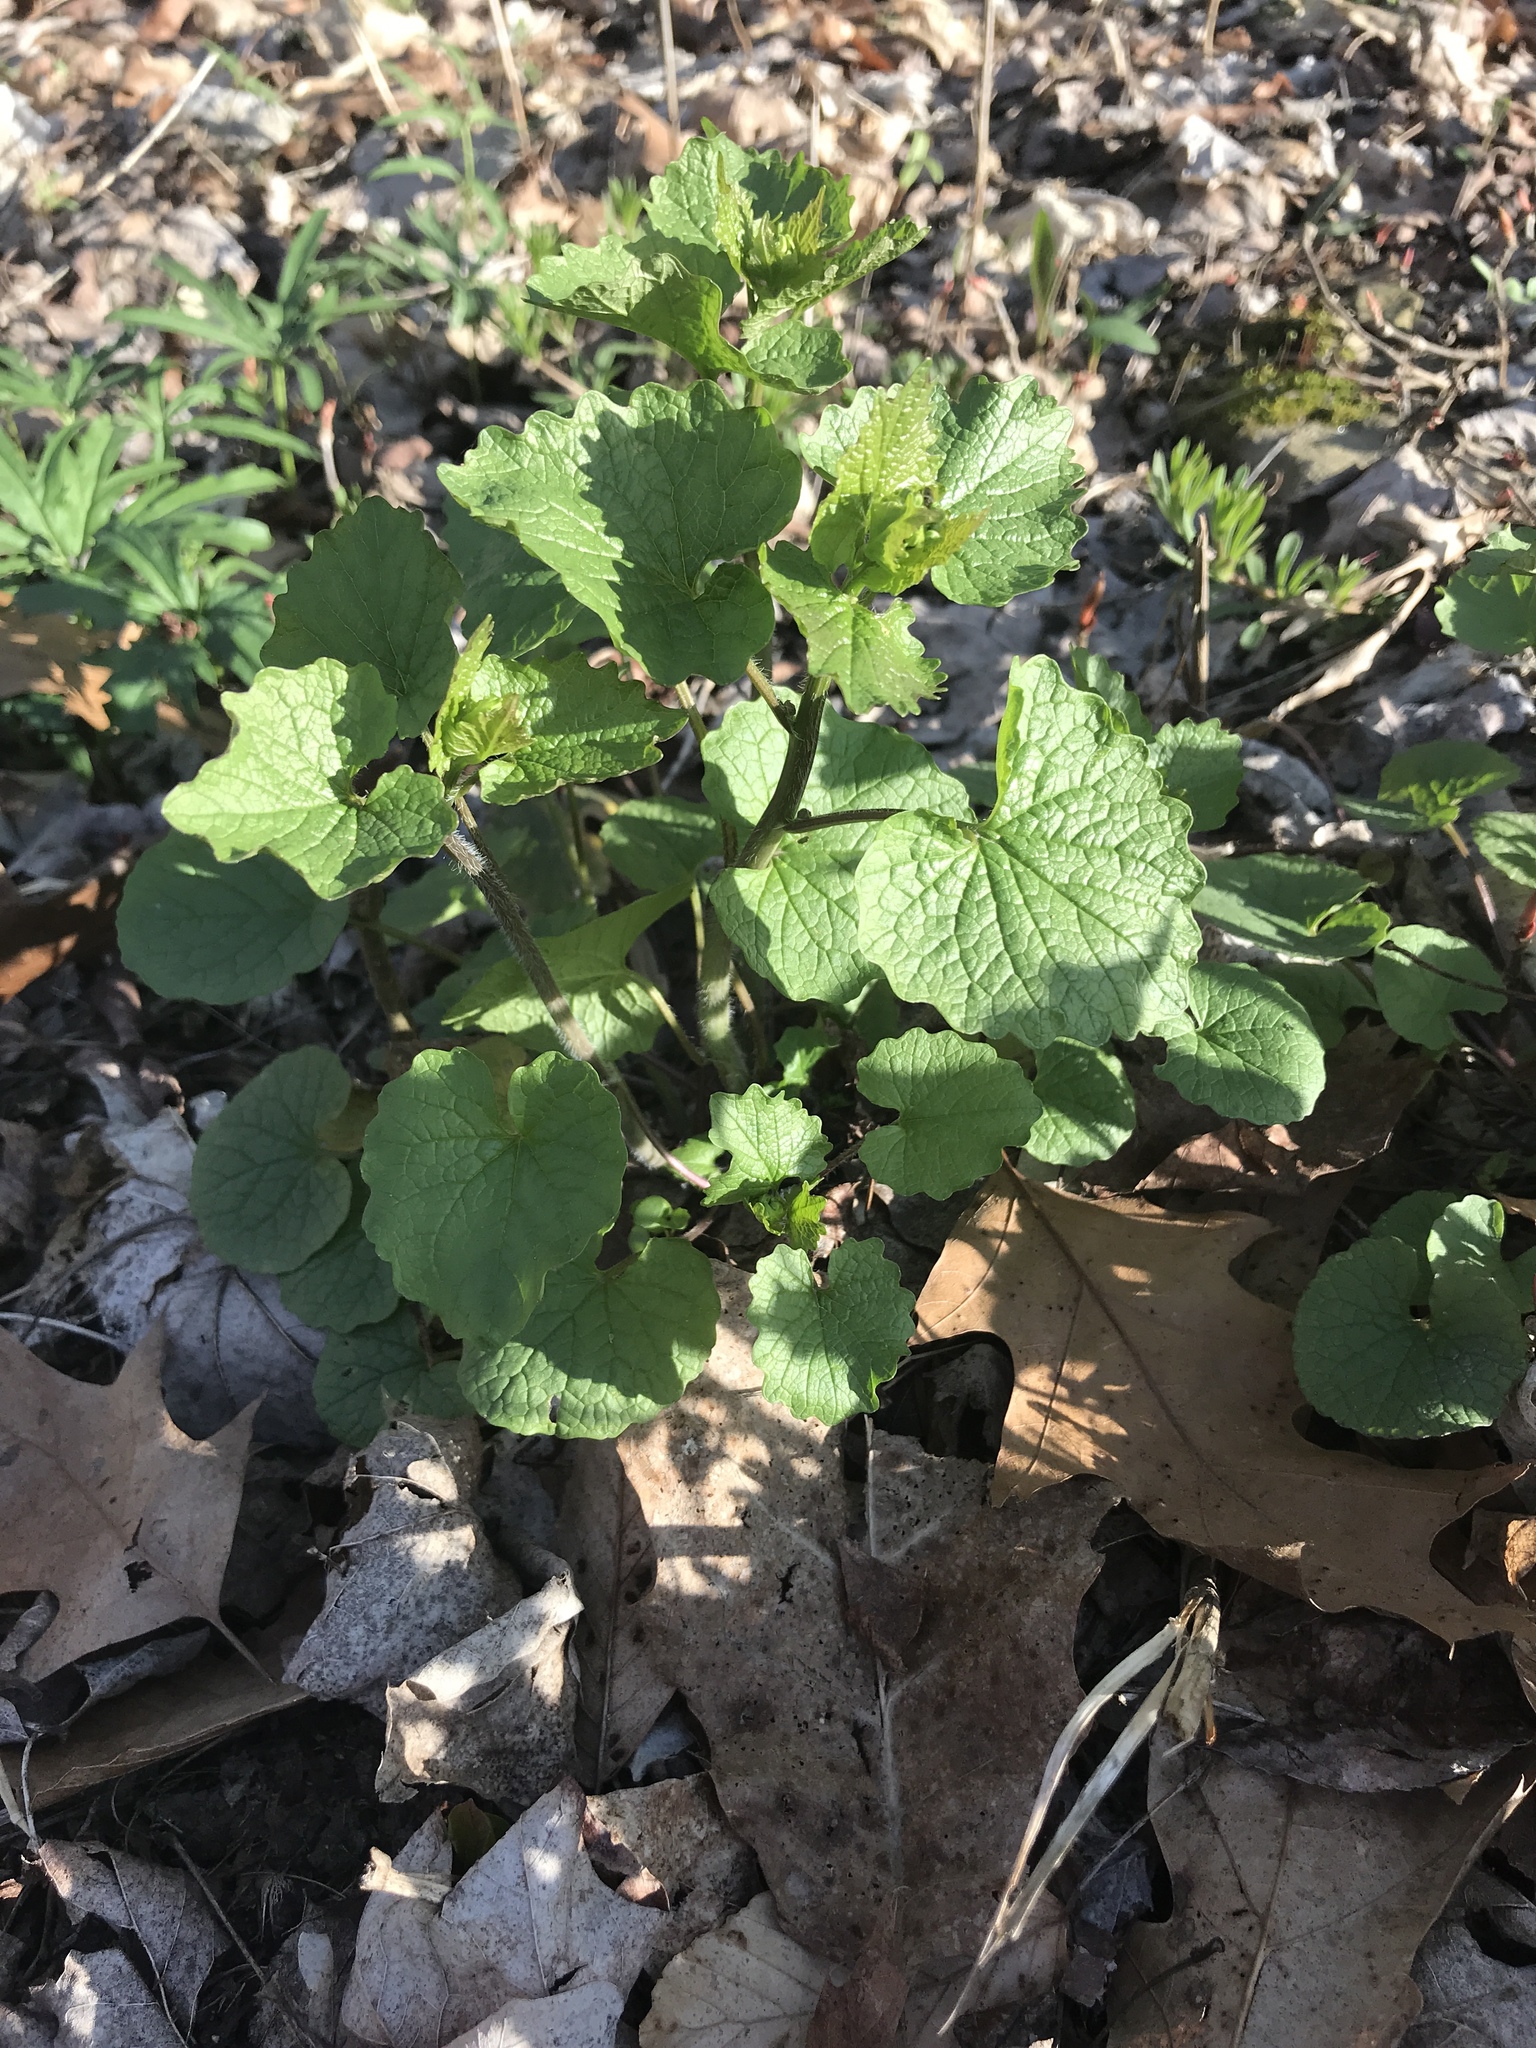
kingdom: Plantae
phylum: Tracheophyta
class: Magnoliopsida
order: Brassicales
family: Brassicaceae
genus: Alliaria
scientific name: Alliaria petiolata
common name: Garlic mustard
